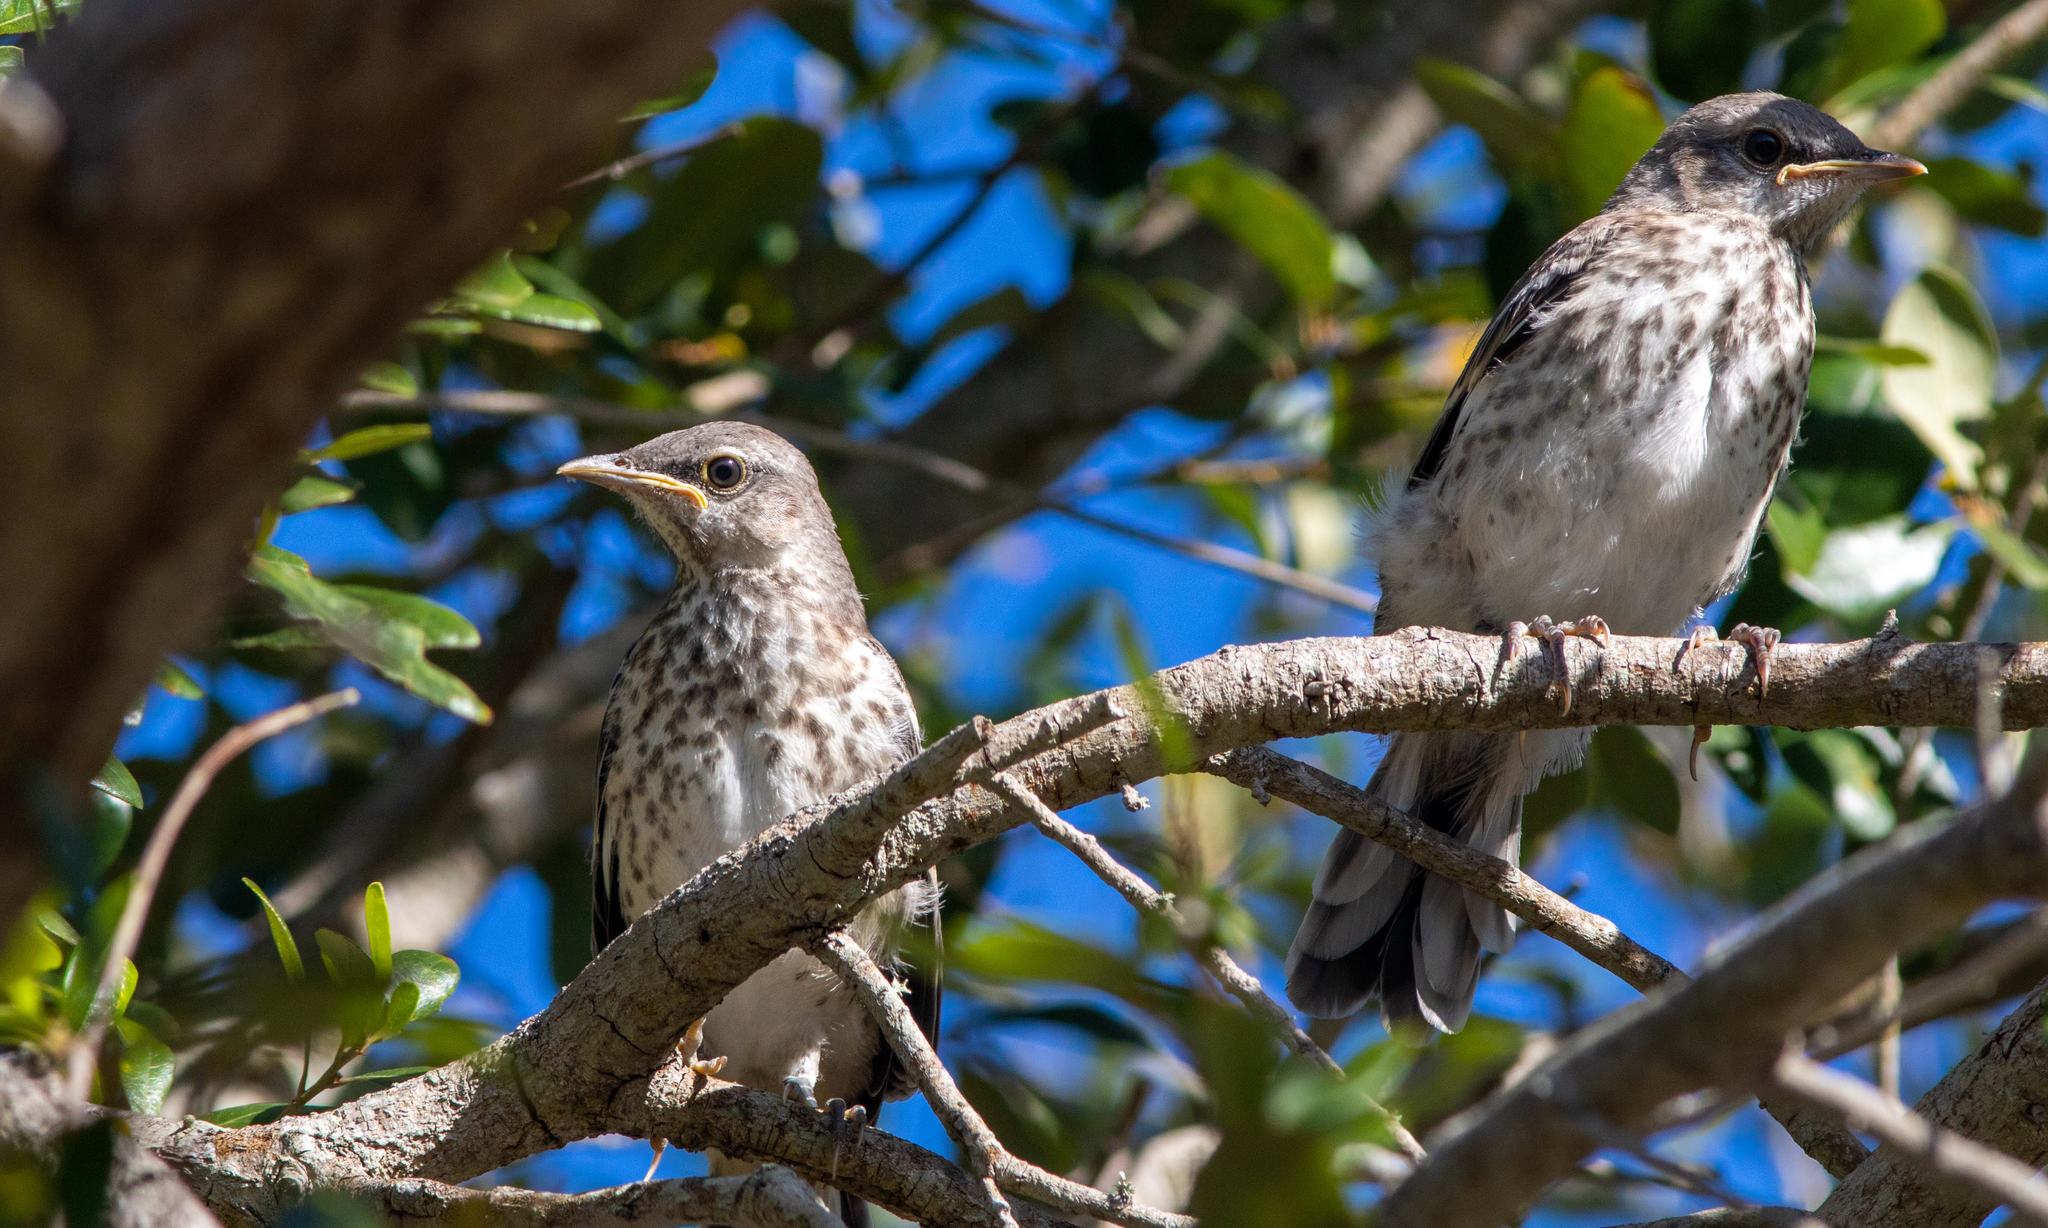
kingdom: Animalia
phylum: Chordata
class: Aves
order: Passeriformes
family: Mimidae
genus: Mimus
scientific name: Mimus polyglottos
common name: Northern mockingbird
